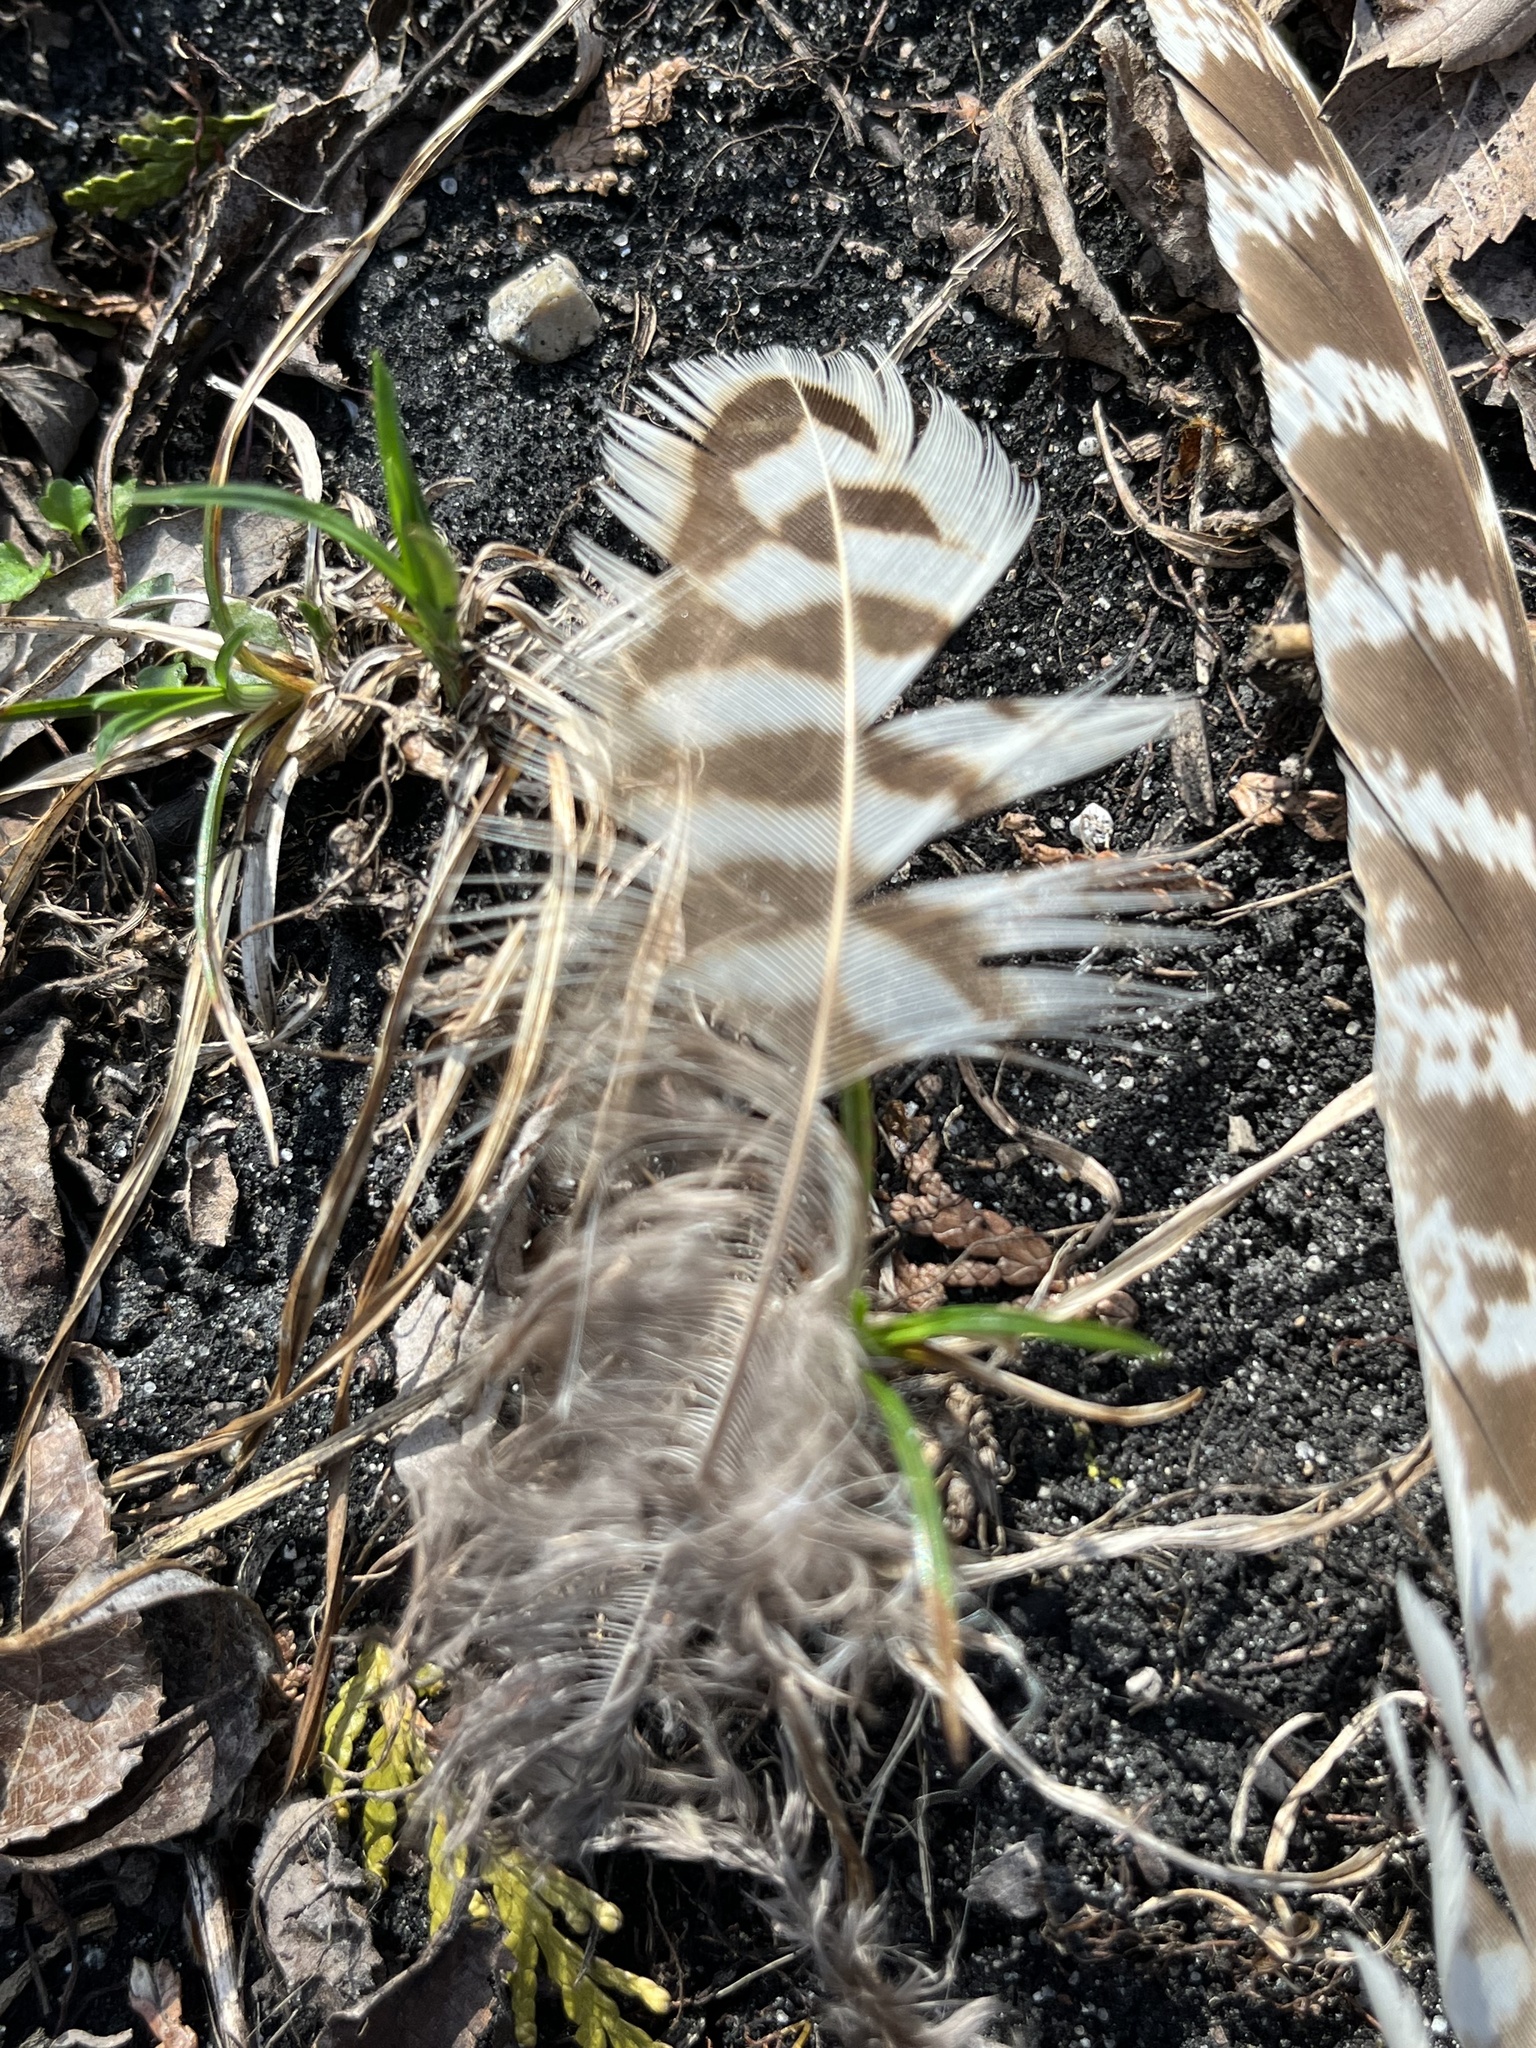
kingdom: Animalia
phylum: Chordata
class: Aves
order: Galliformes
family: Phasianidae
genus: Phasianus
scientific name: Phasianus colchicus
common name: Common pheasant
